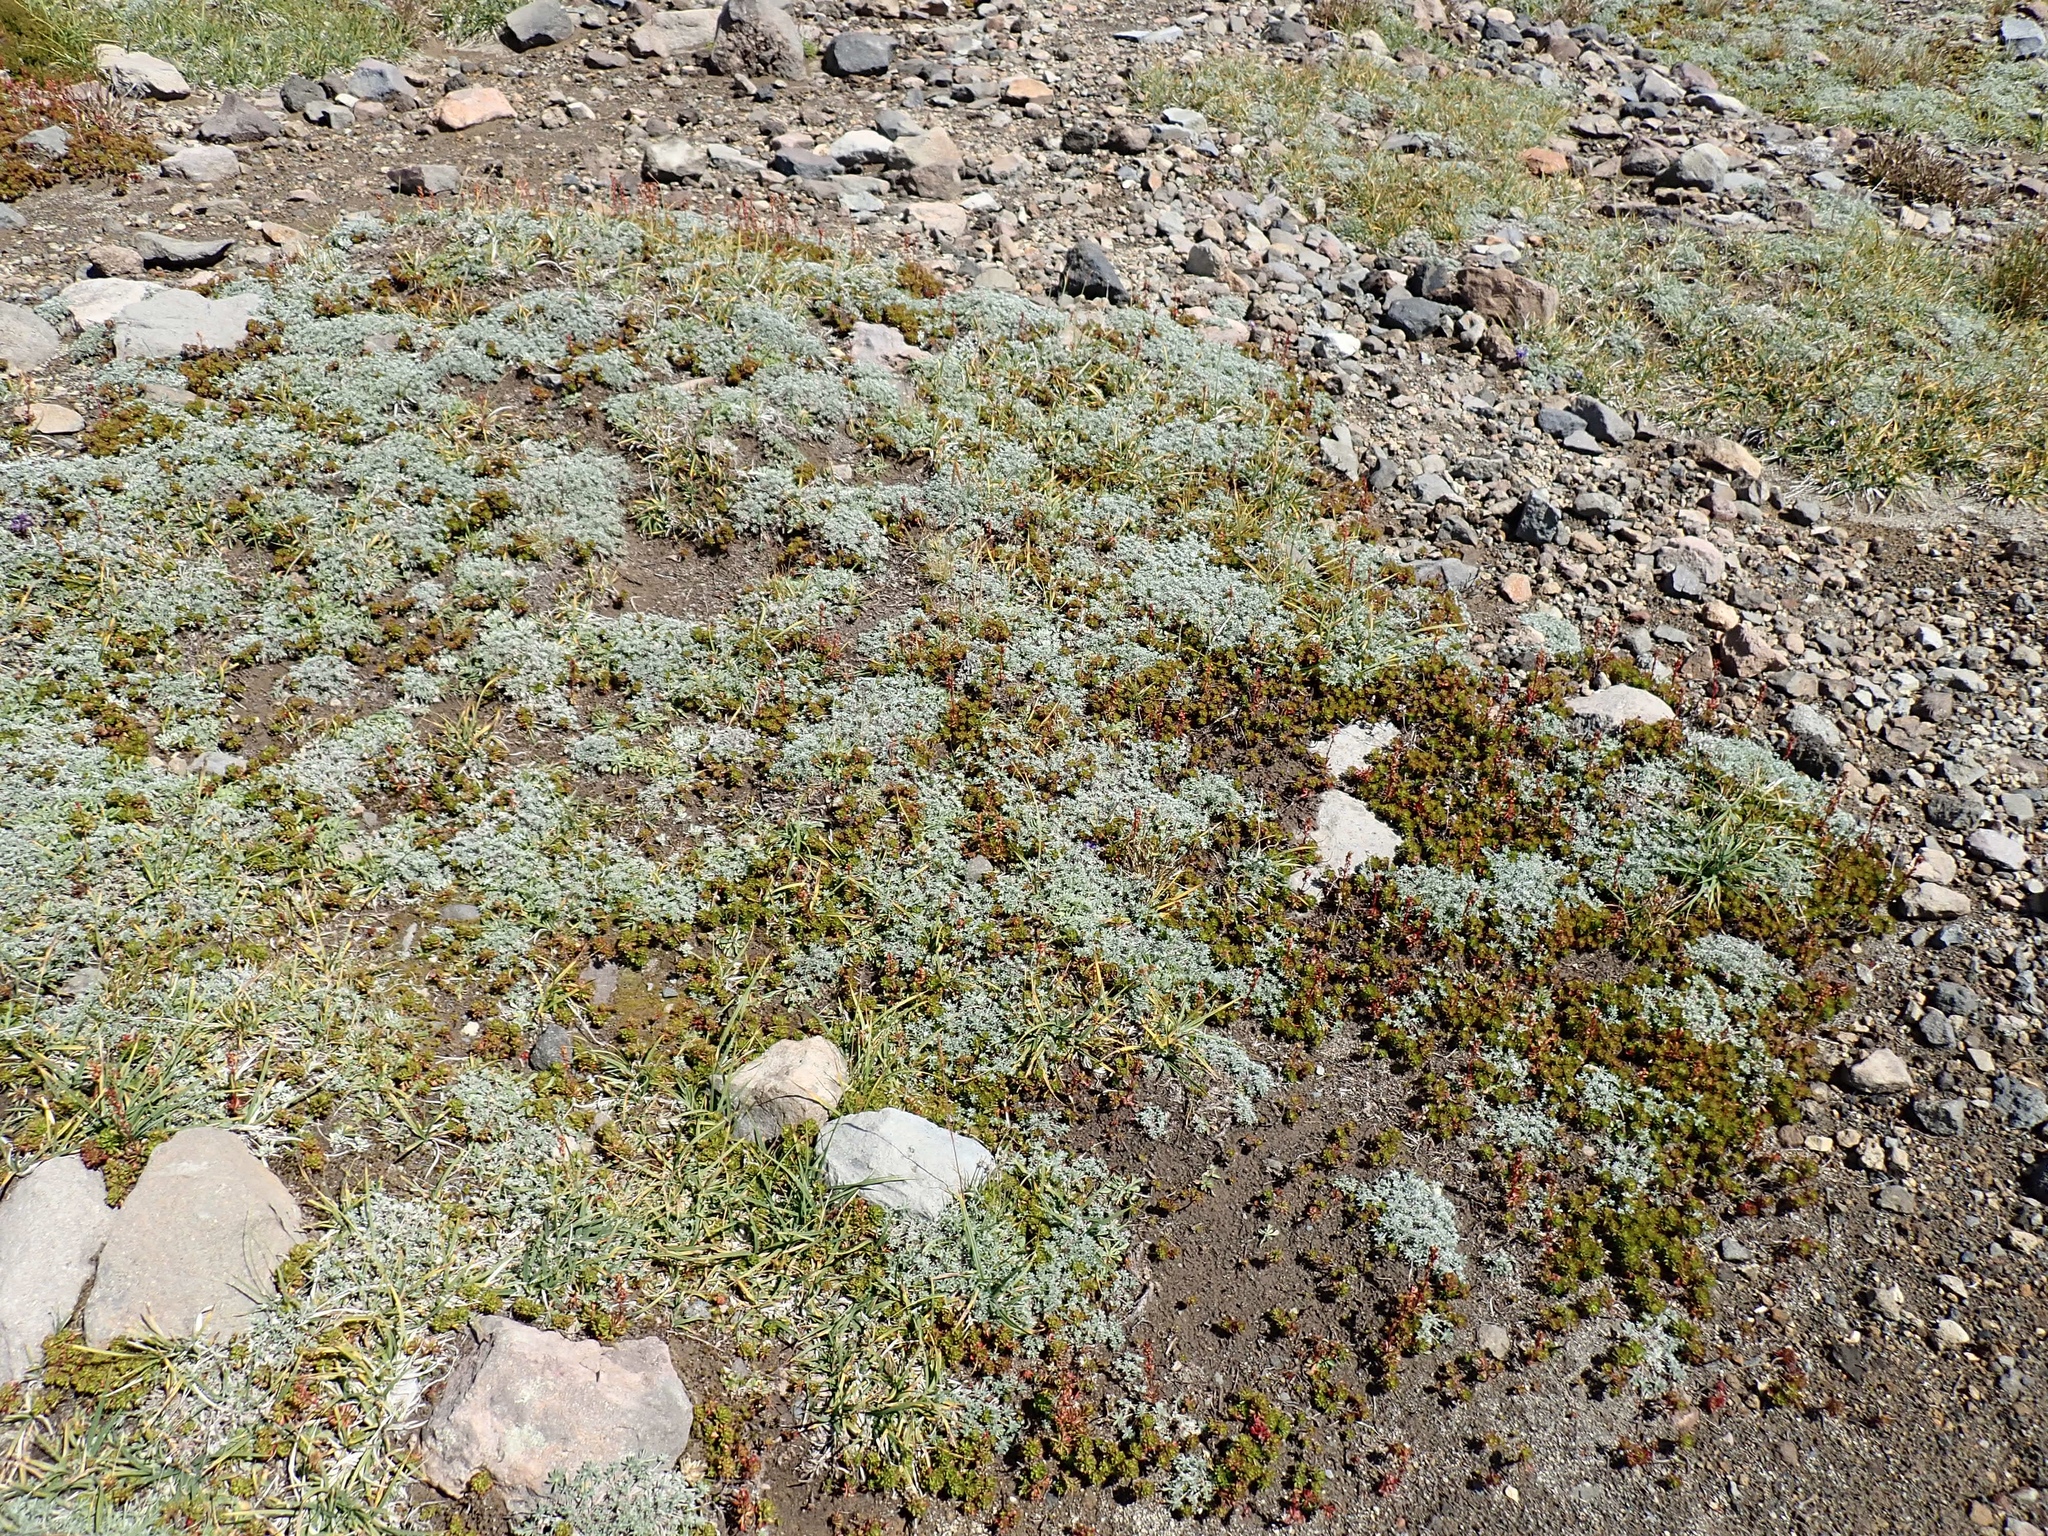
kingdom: Plantae
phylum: Tracheophyta
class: Magnoliopsida
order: Rosales
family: Rosaceae
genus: Luetkea
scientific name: Luetkea pectinata
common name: Partridgefoot
